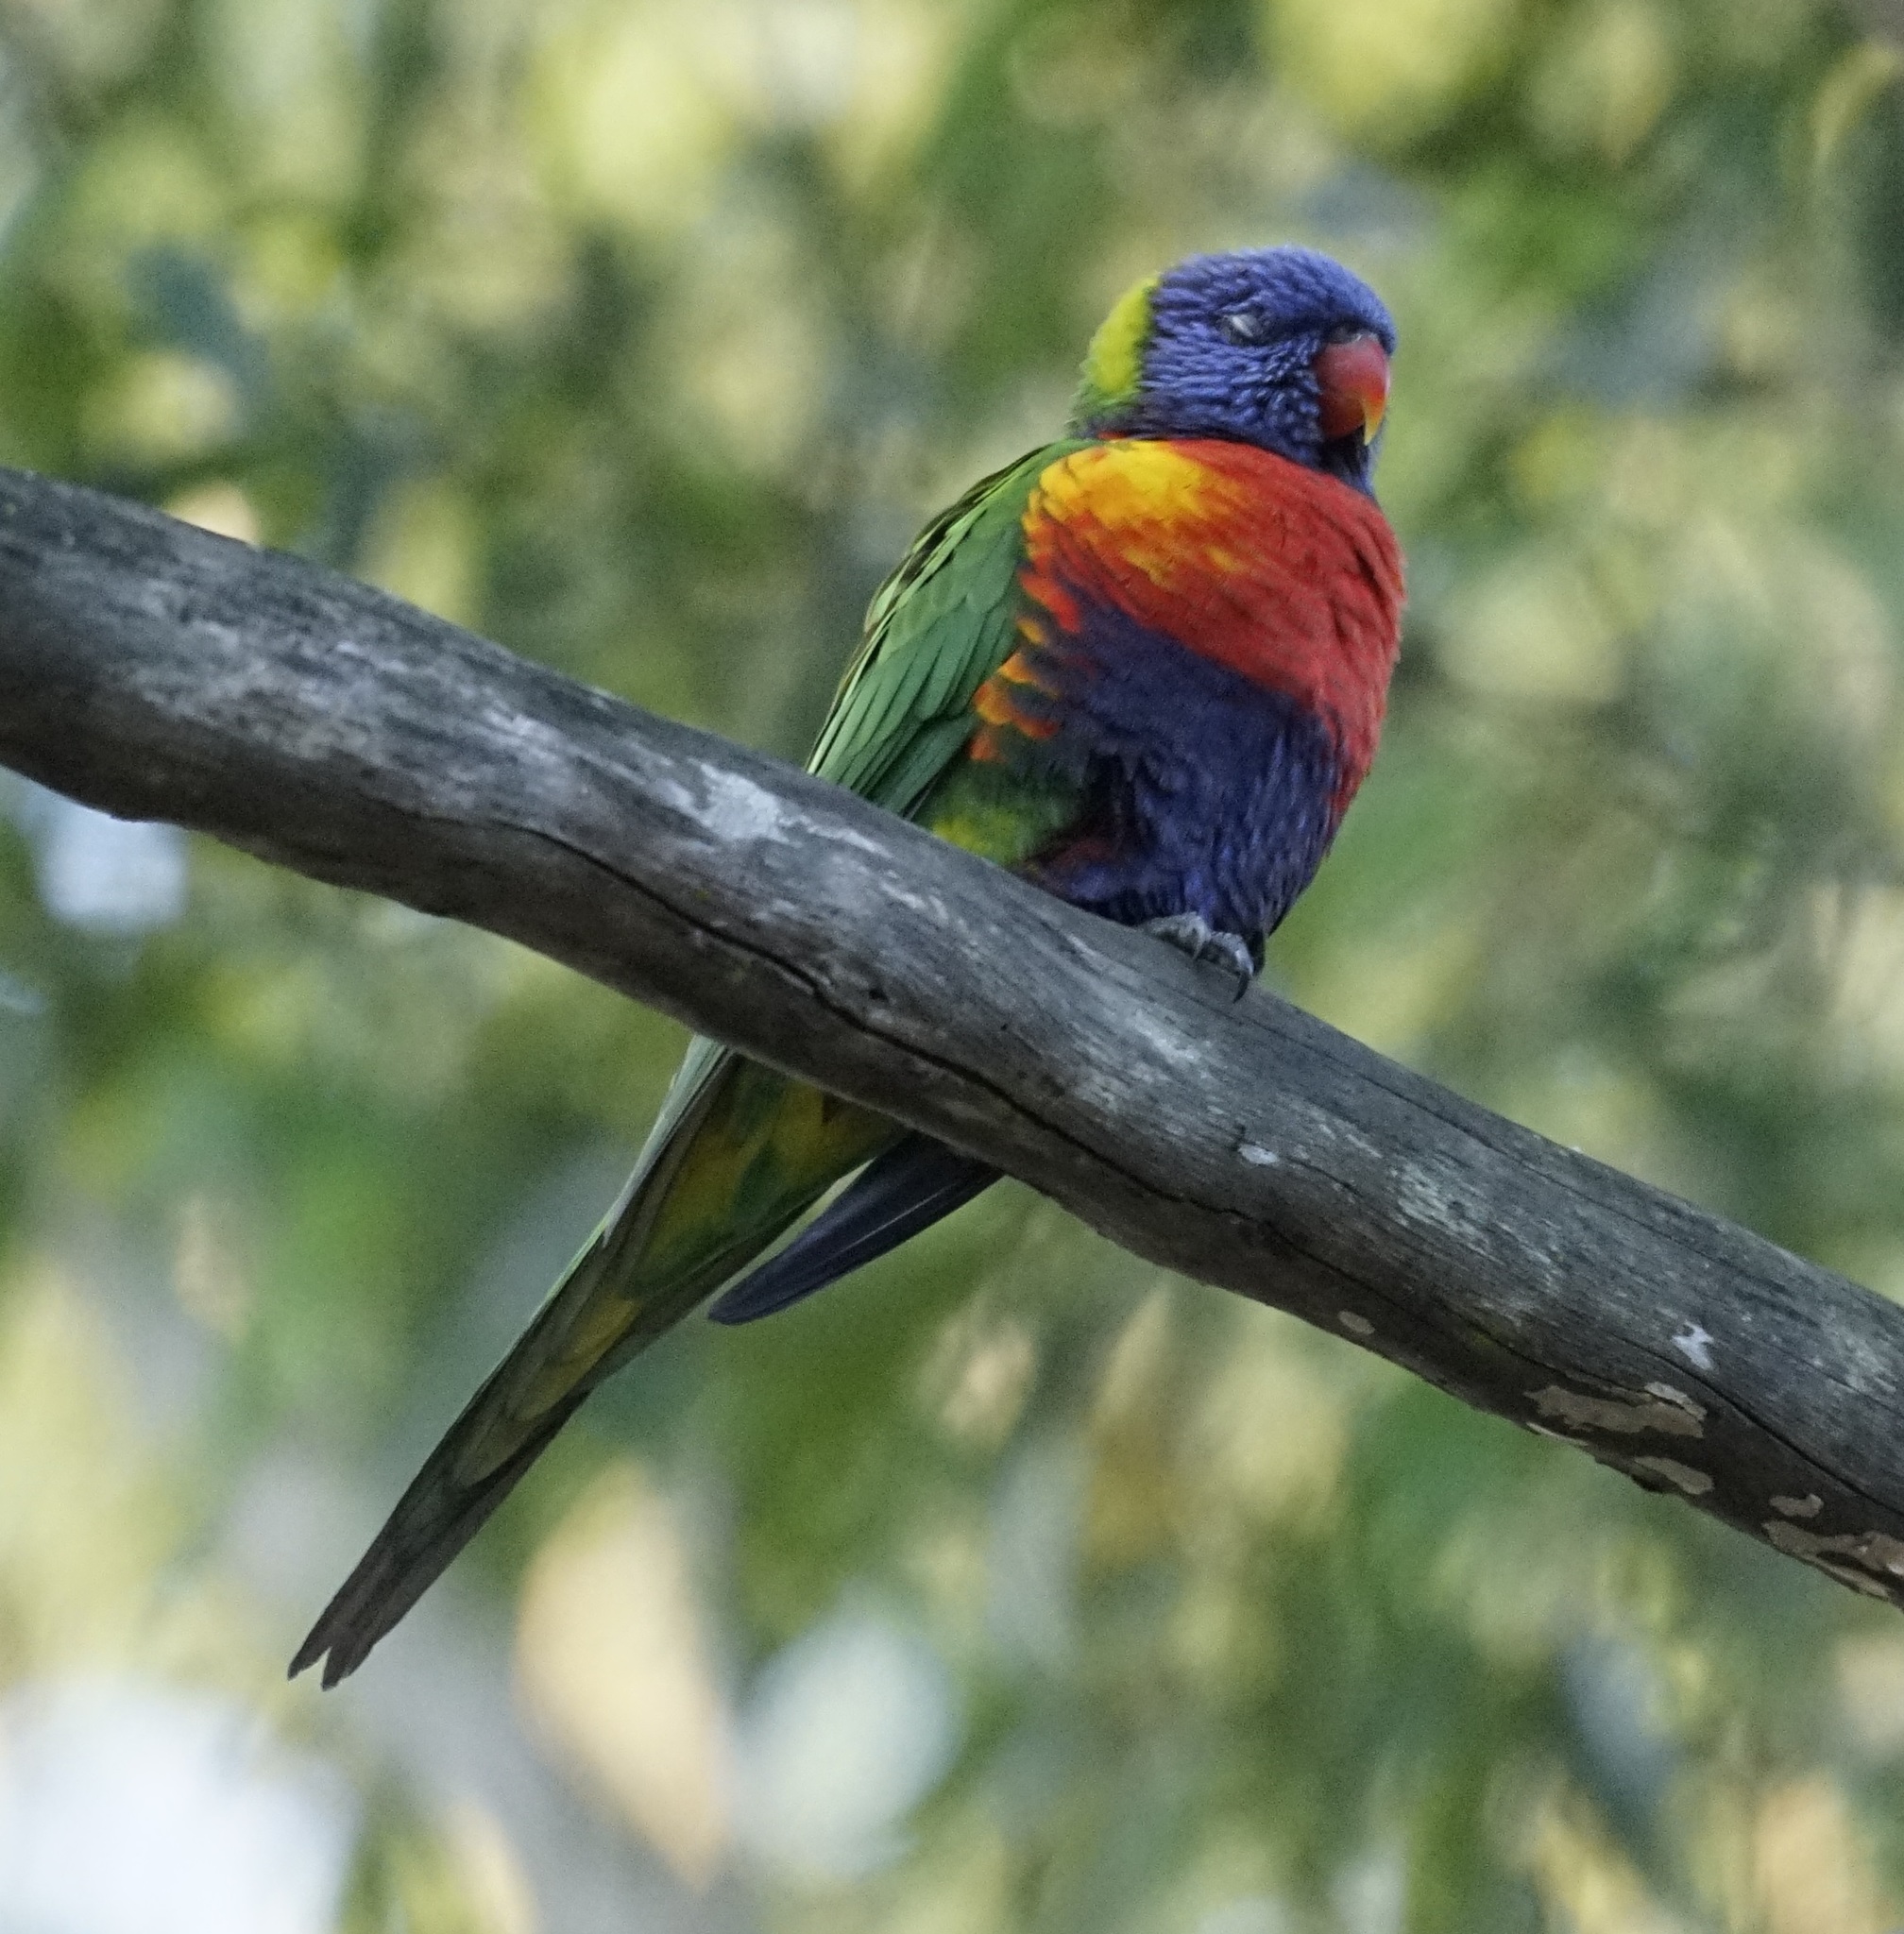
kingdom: Animalia
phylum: Chordata
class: Aves
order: Psittaciformes
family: Psittacidae
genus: Trichoglossus
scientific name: Trichoglossus haematodus
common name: Coconut lorikeet
